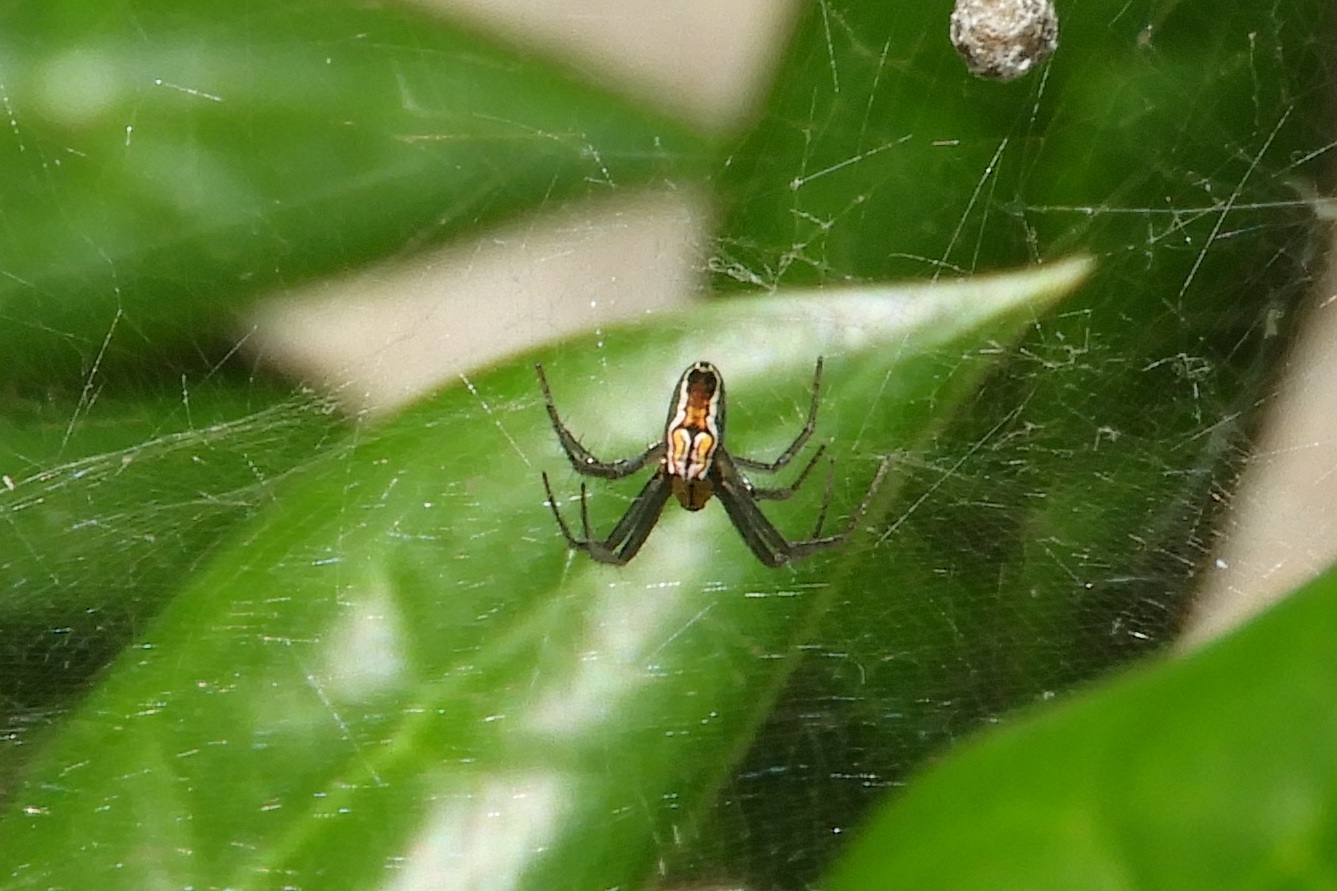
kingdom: Animalia
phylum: Arthropoda
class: Arachnida
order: Araneae
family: Araneidae
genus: Mecynogea
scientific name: Mecynogea lemniscata
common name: Orb weavers
